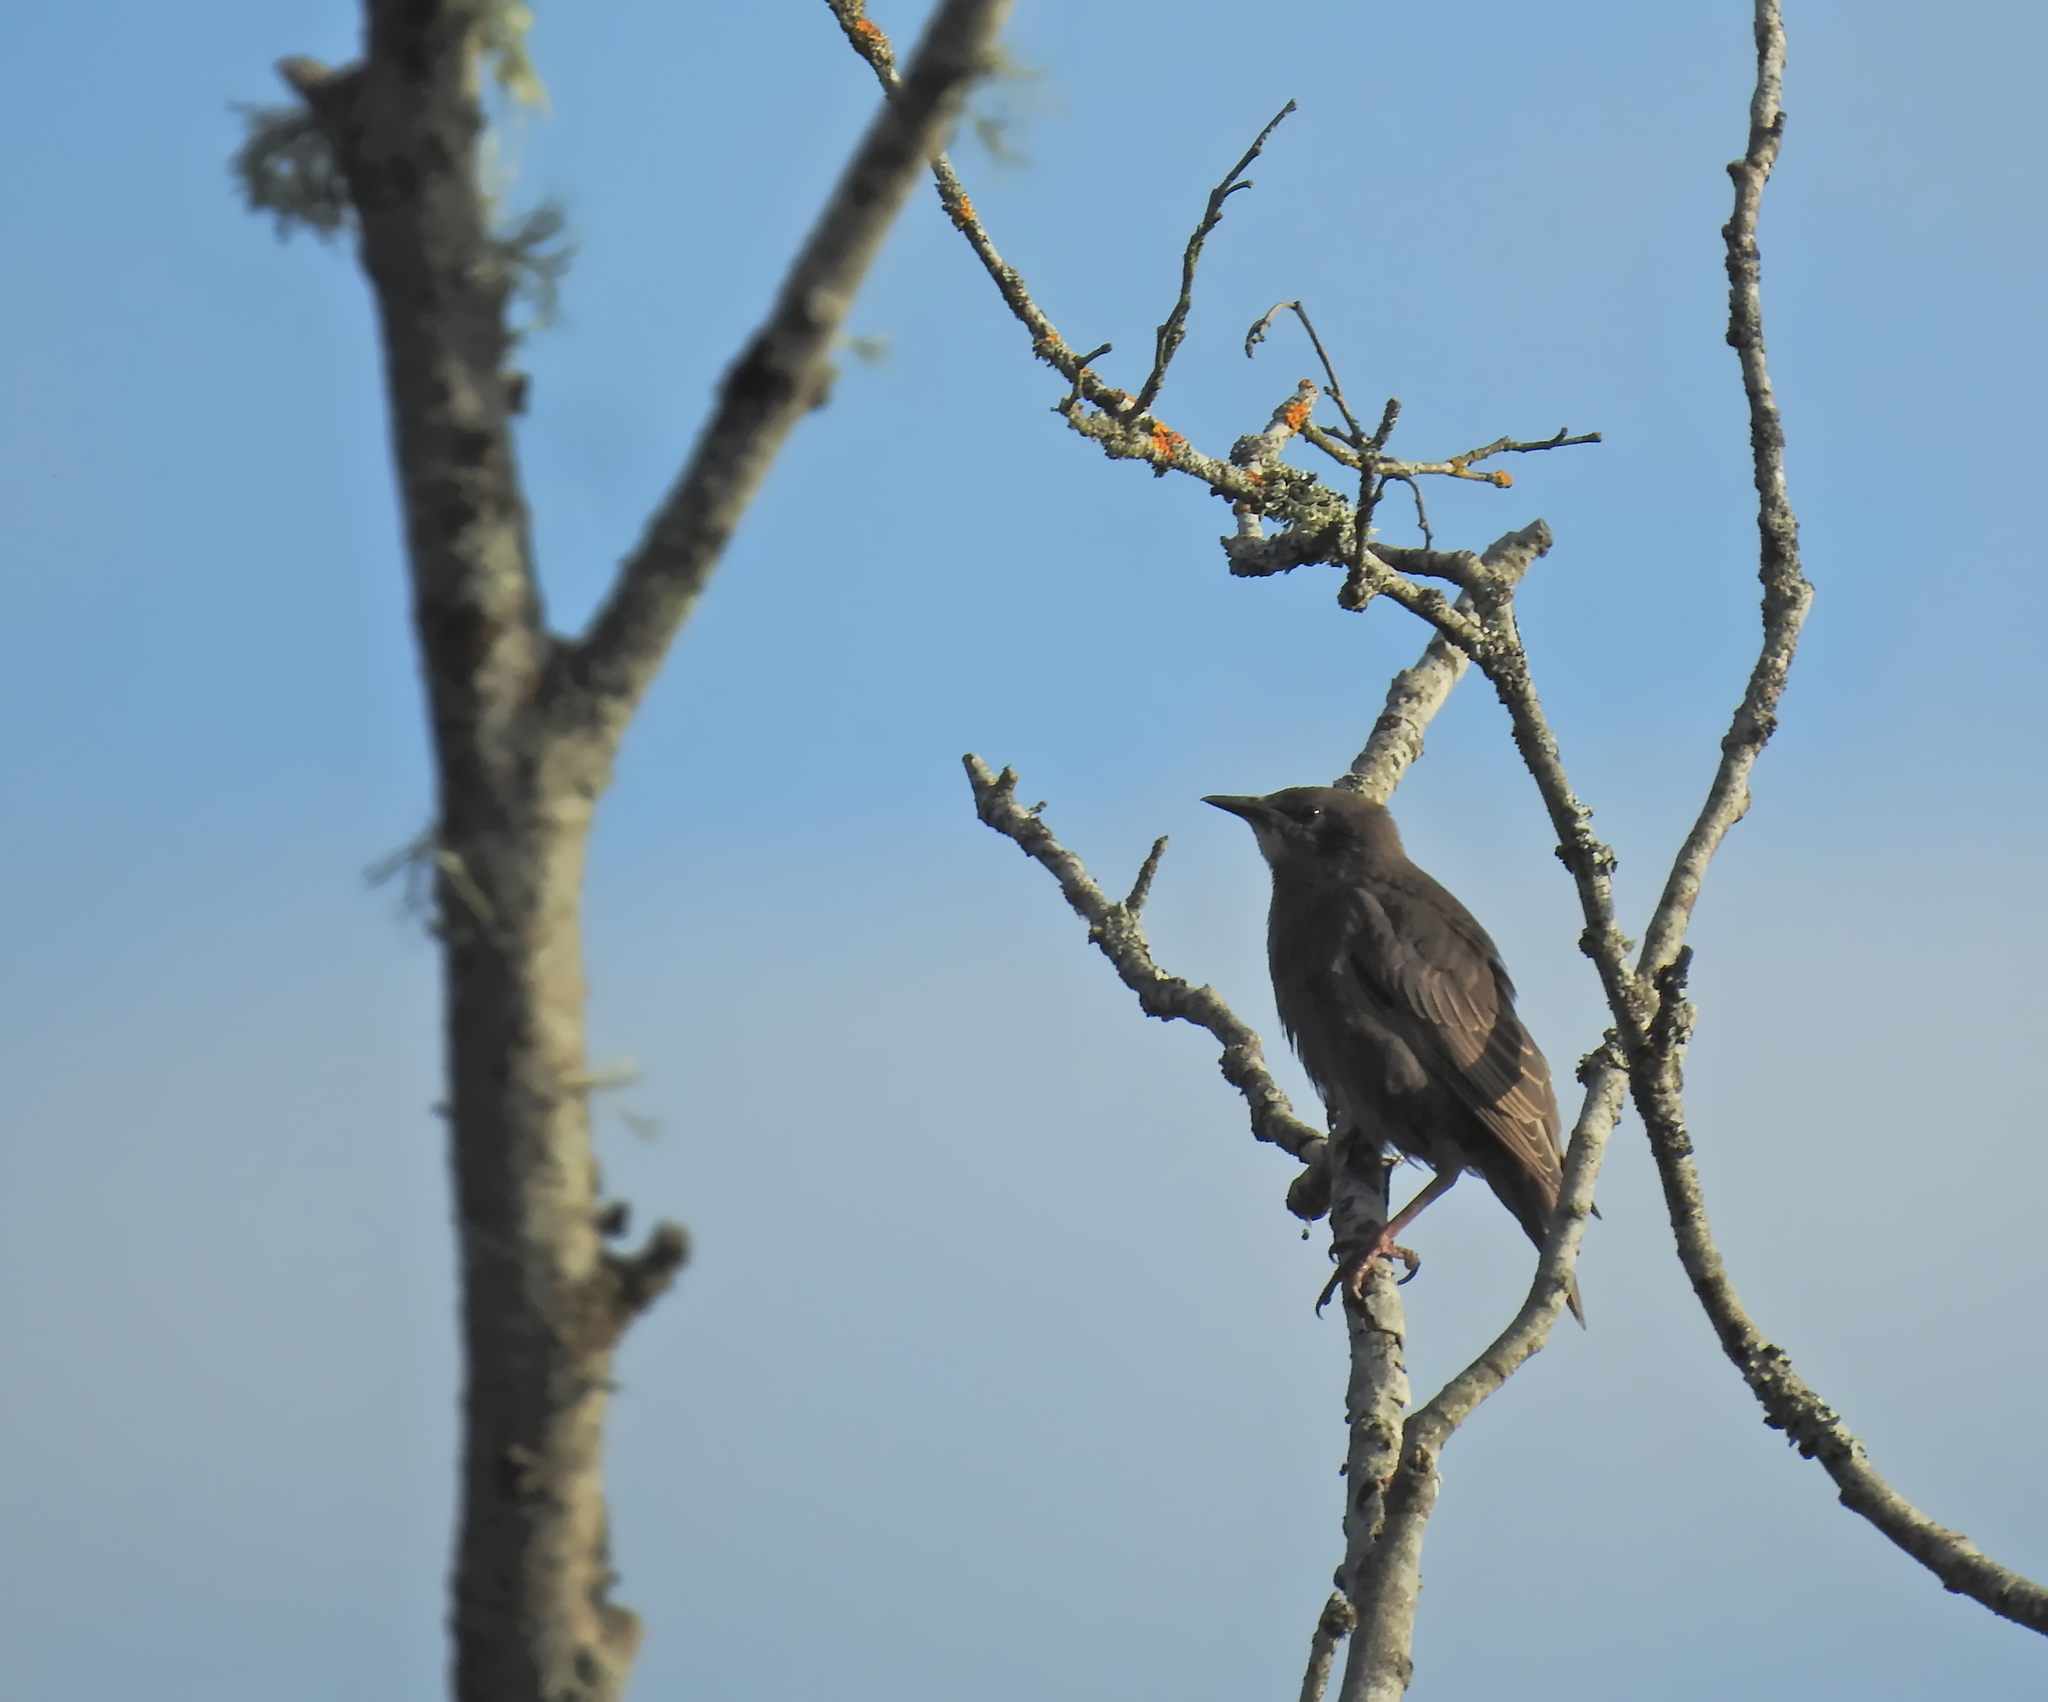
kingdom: Animalia
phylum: Chordata
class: Aves
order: Passeriformes
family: Sturnidae
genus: Sturnus
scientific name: Sturnus vulgaris
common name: Common starling
